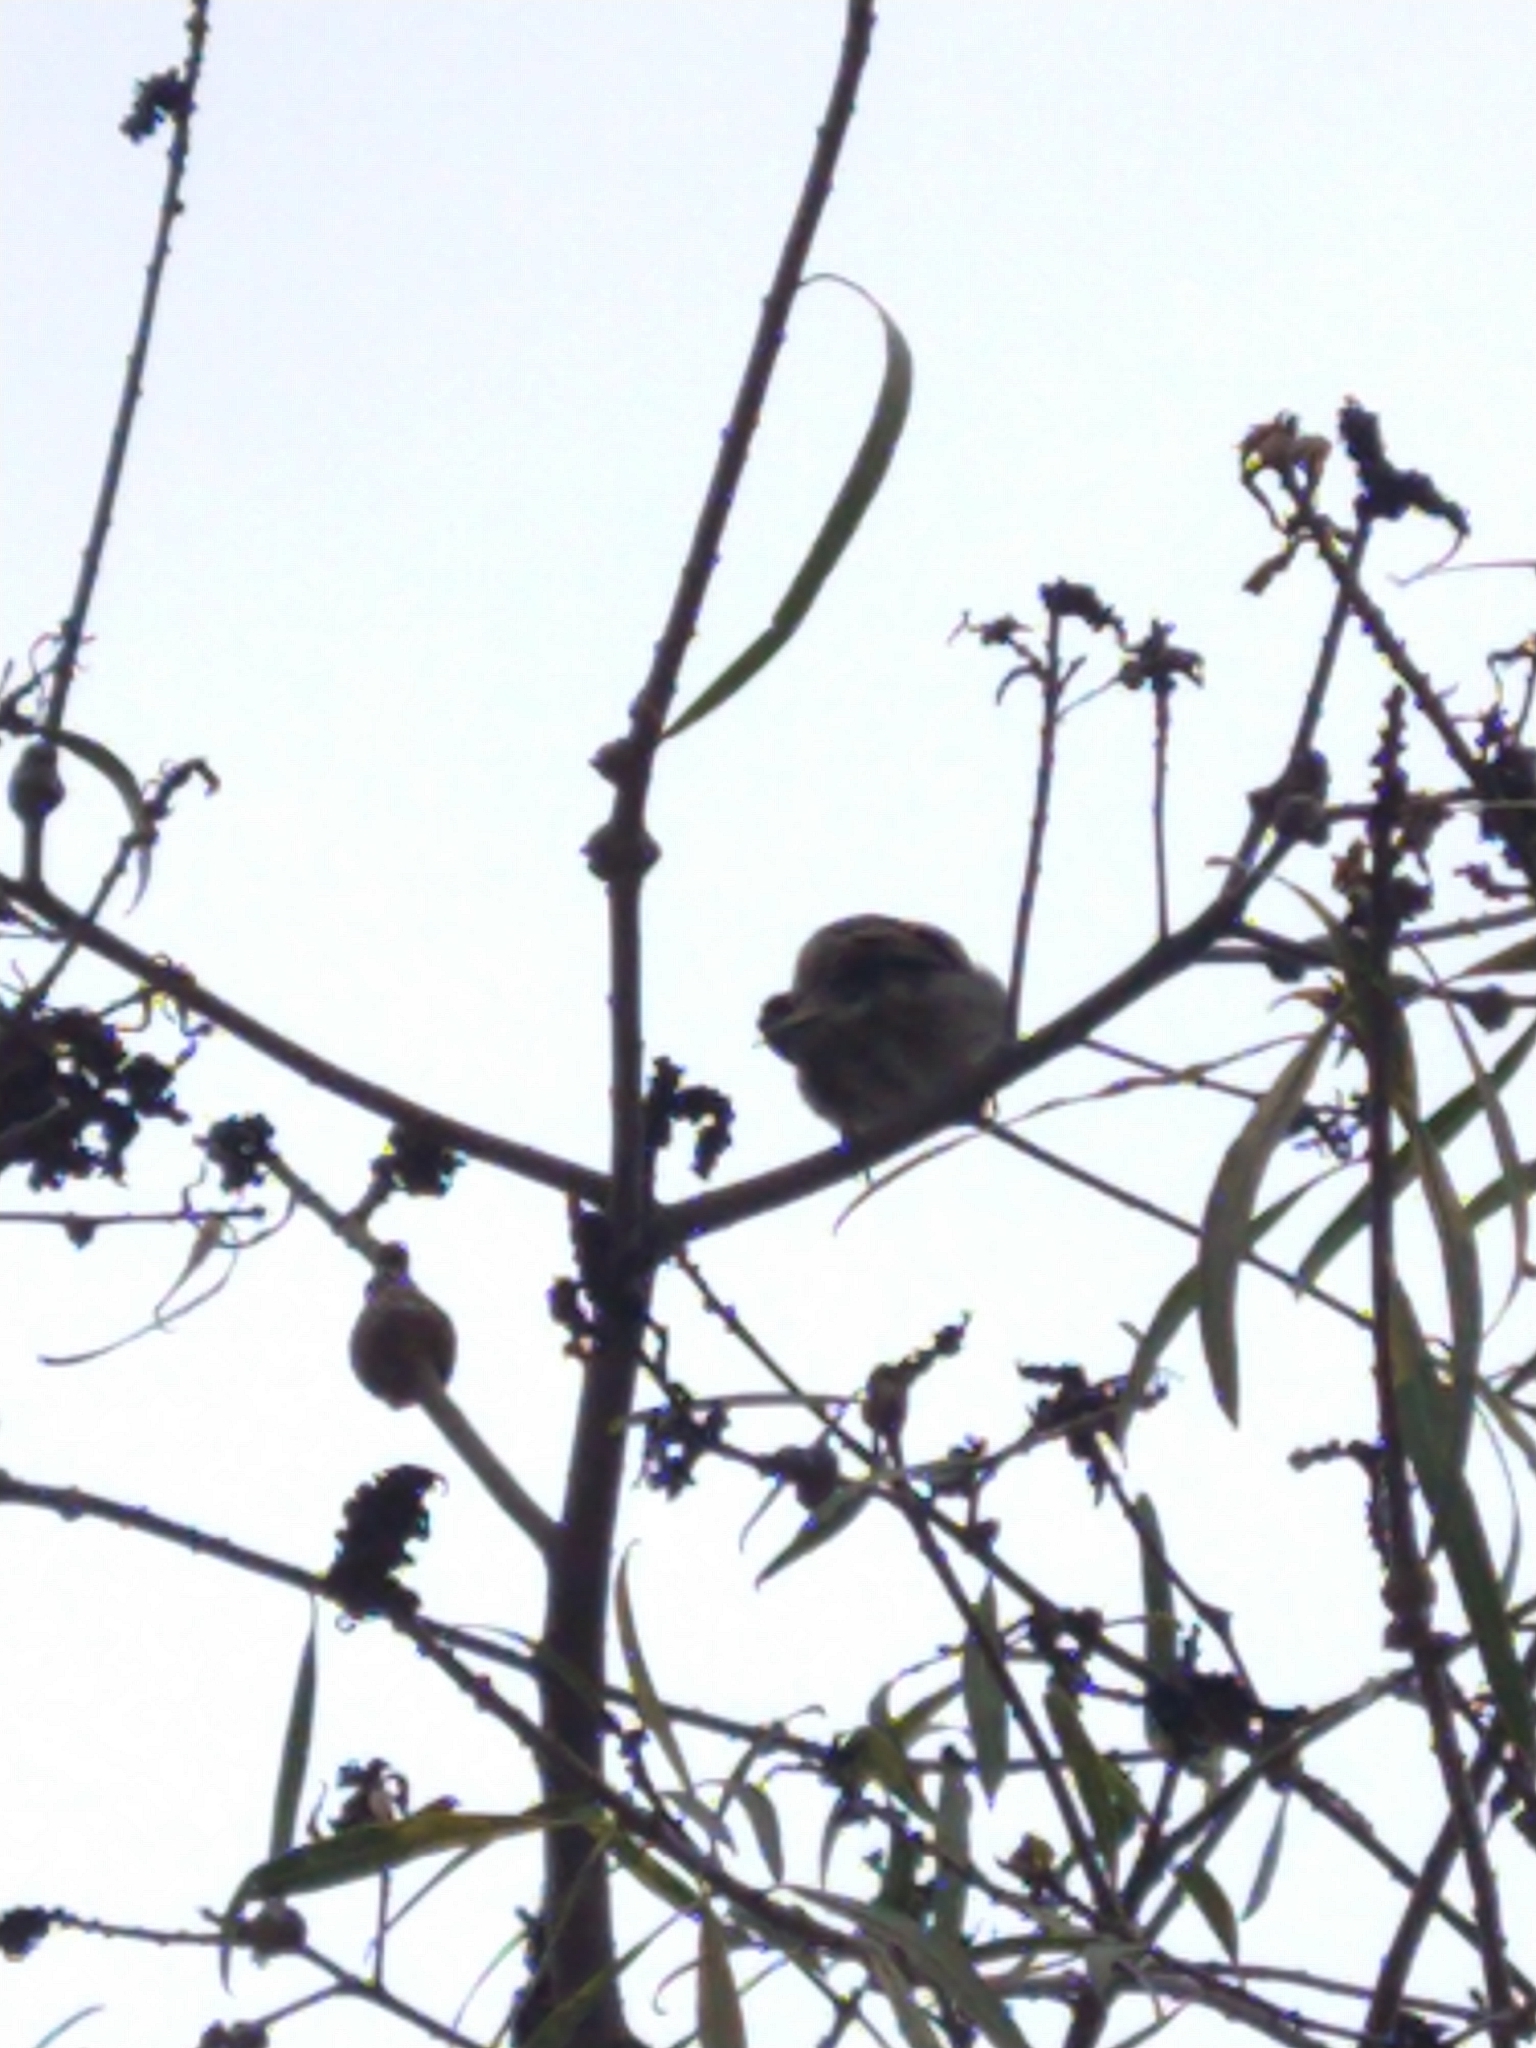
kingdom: Animalia
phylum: Chordata
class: Aves
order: Passeriformes
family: Passeridae
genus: Passer
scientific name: Passer domesticus
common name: House sparrow
